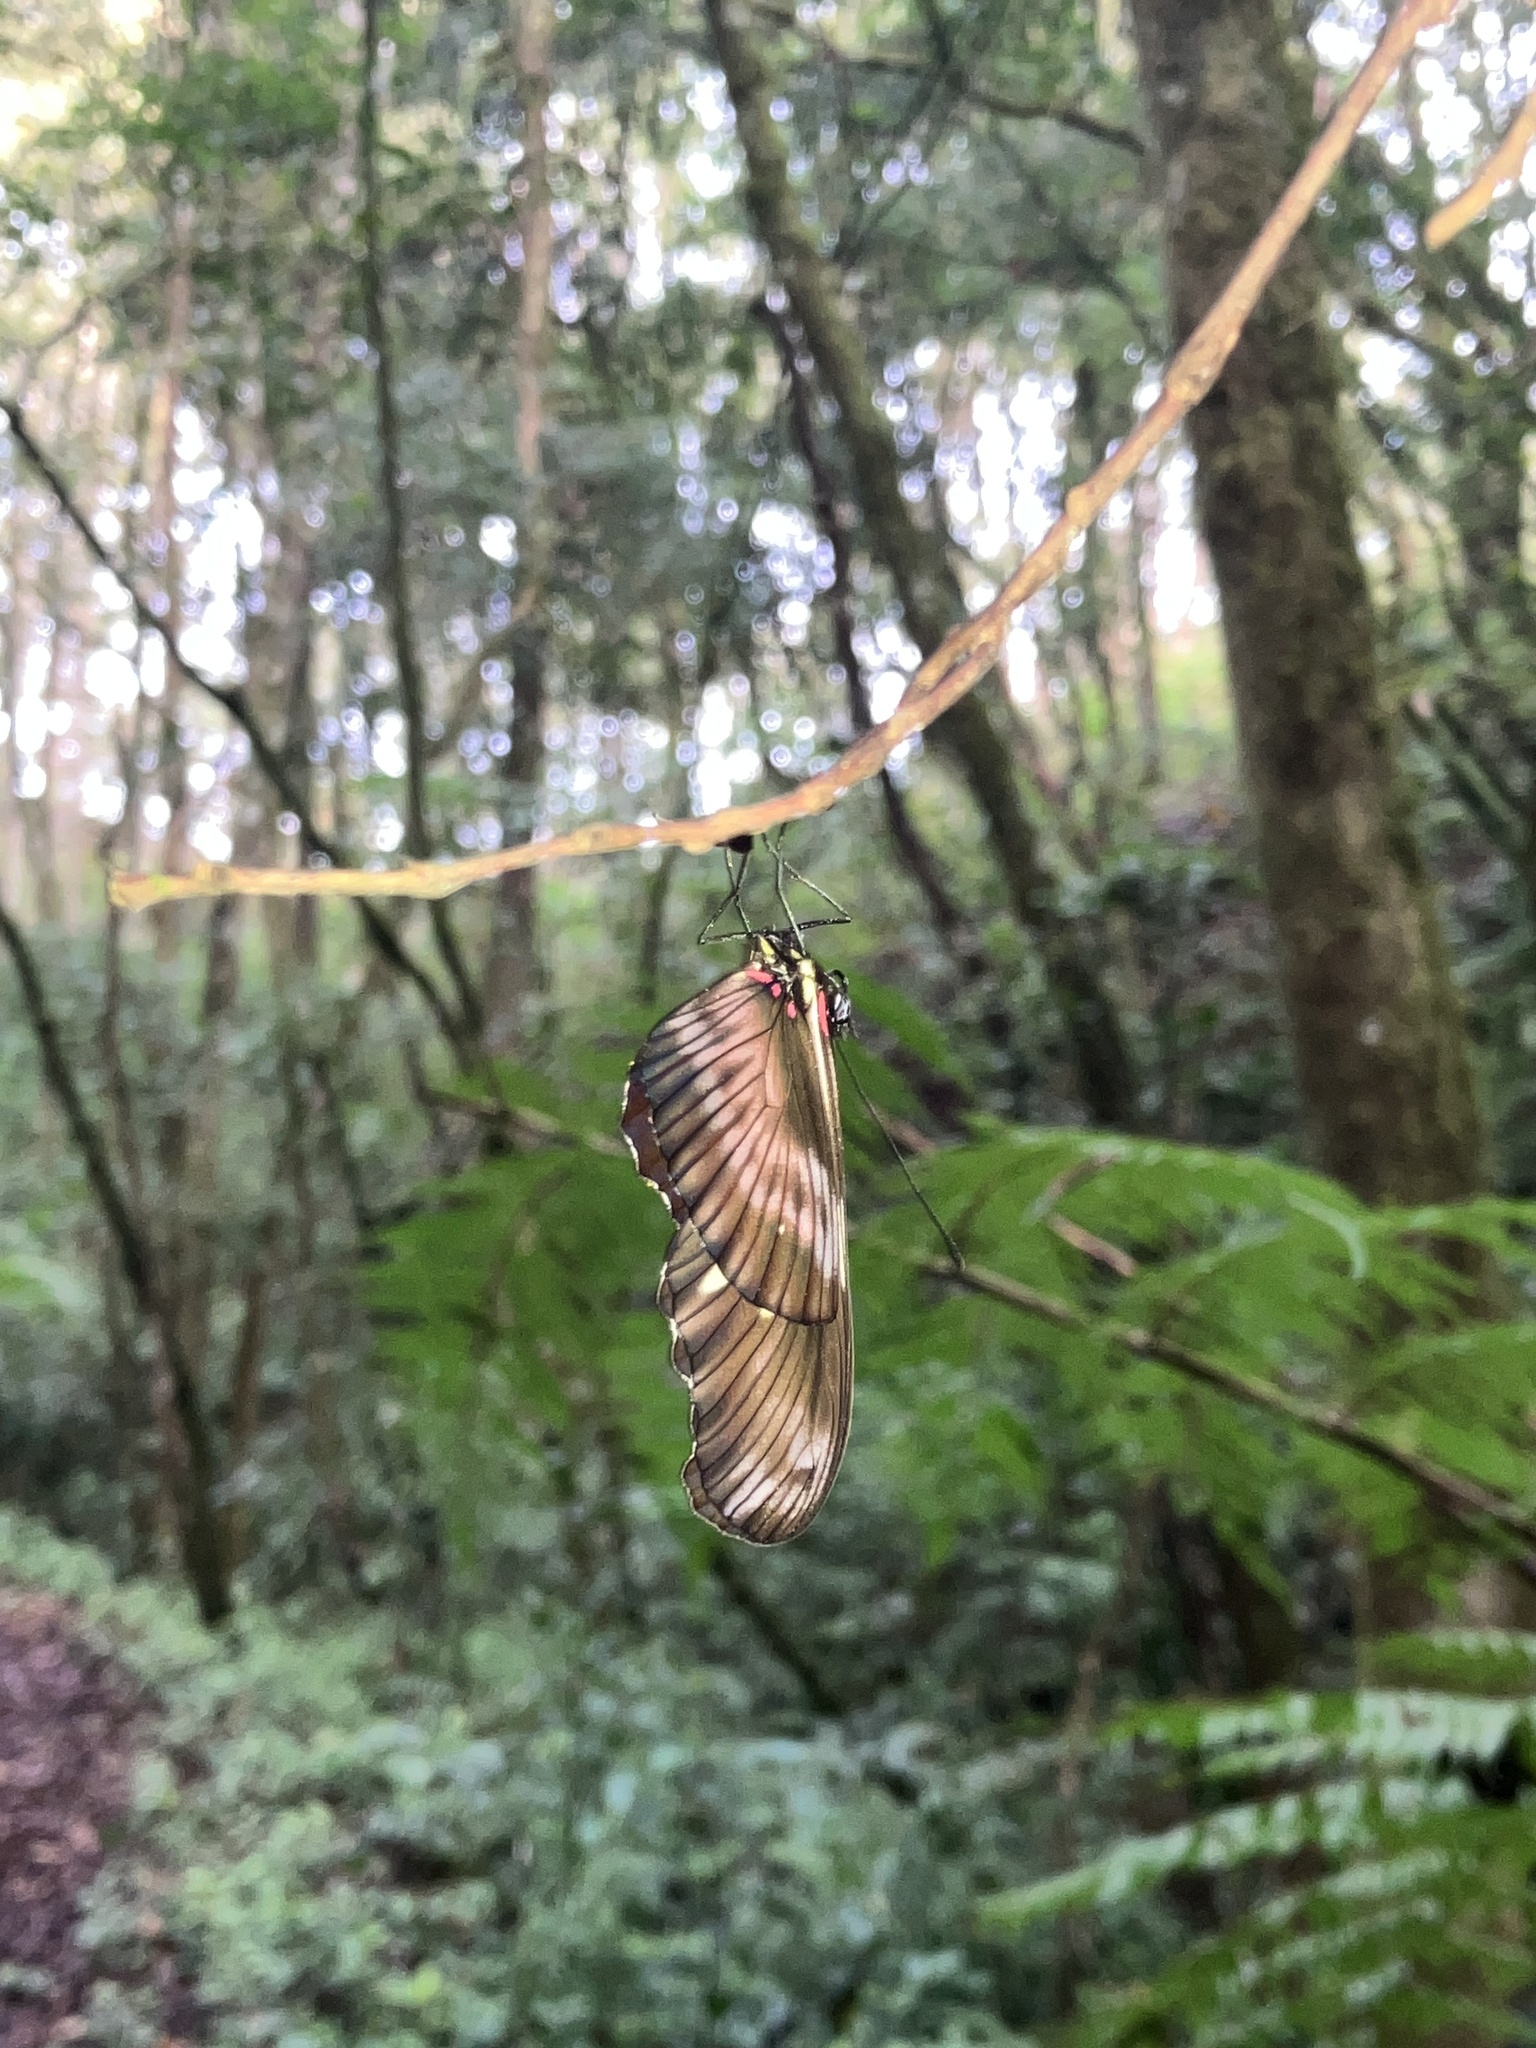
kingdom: Animalia
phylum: Arthropoda
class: Insecta
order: Lepidoptera
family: Nymphalidae
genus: Heliconius
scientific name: Heliconius hortense
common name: Mexican longwing
